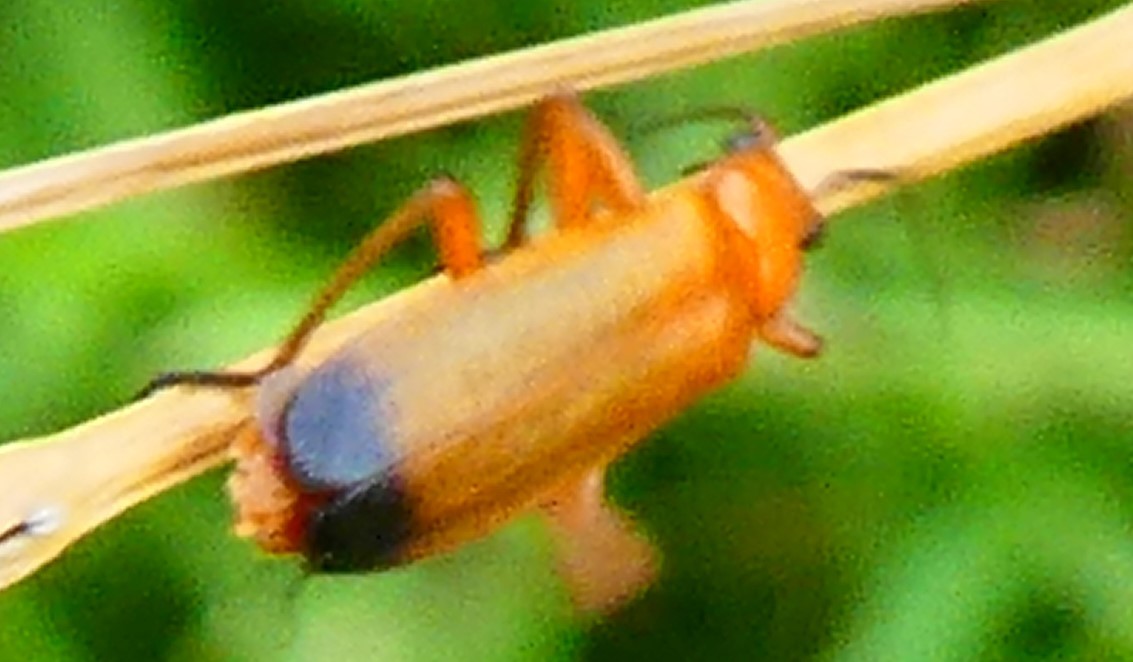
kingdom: Animalia
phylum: Arthropoda
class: Insecta
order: Coleoptera
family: Cantharidae
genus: Rhagonycha
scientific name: Rhagonycha fulva
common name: Common red soldier beetle
